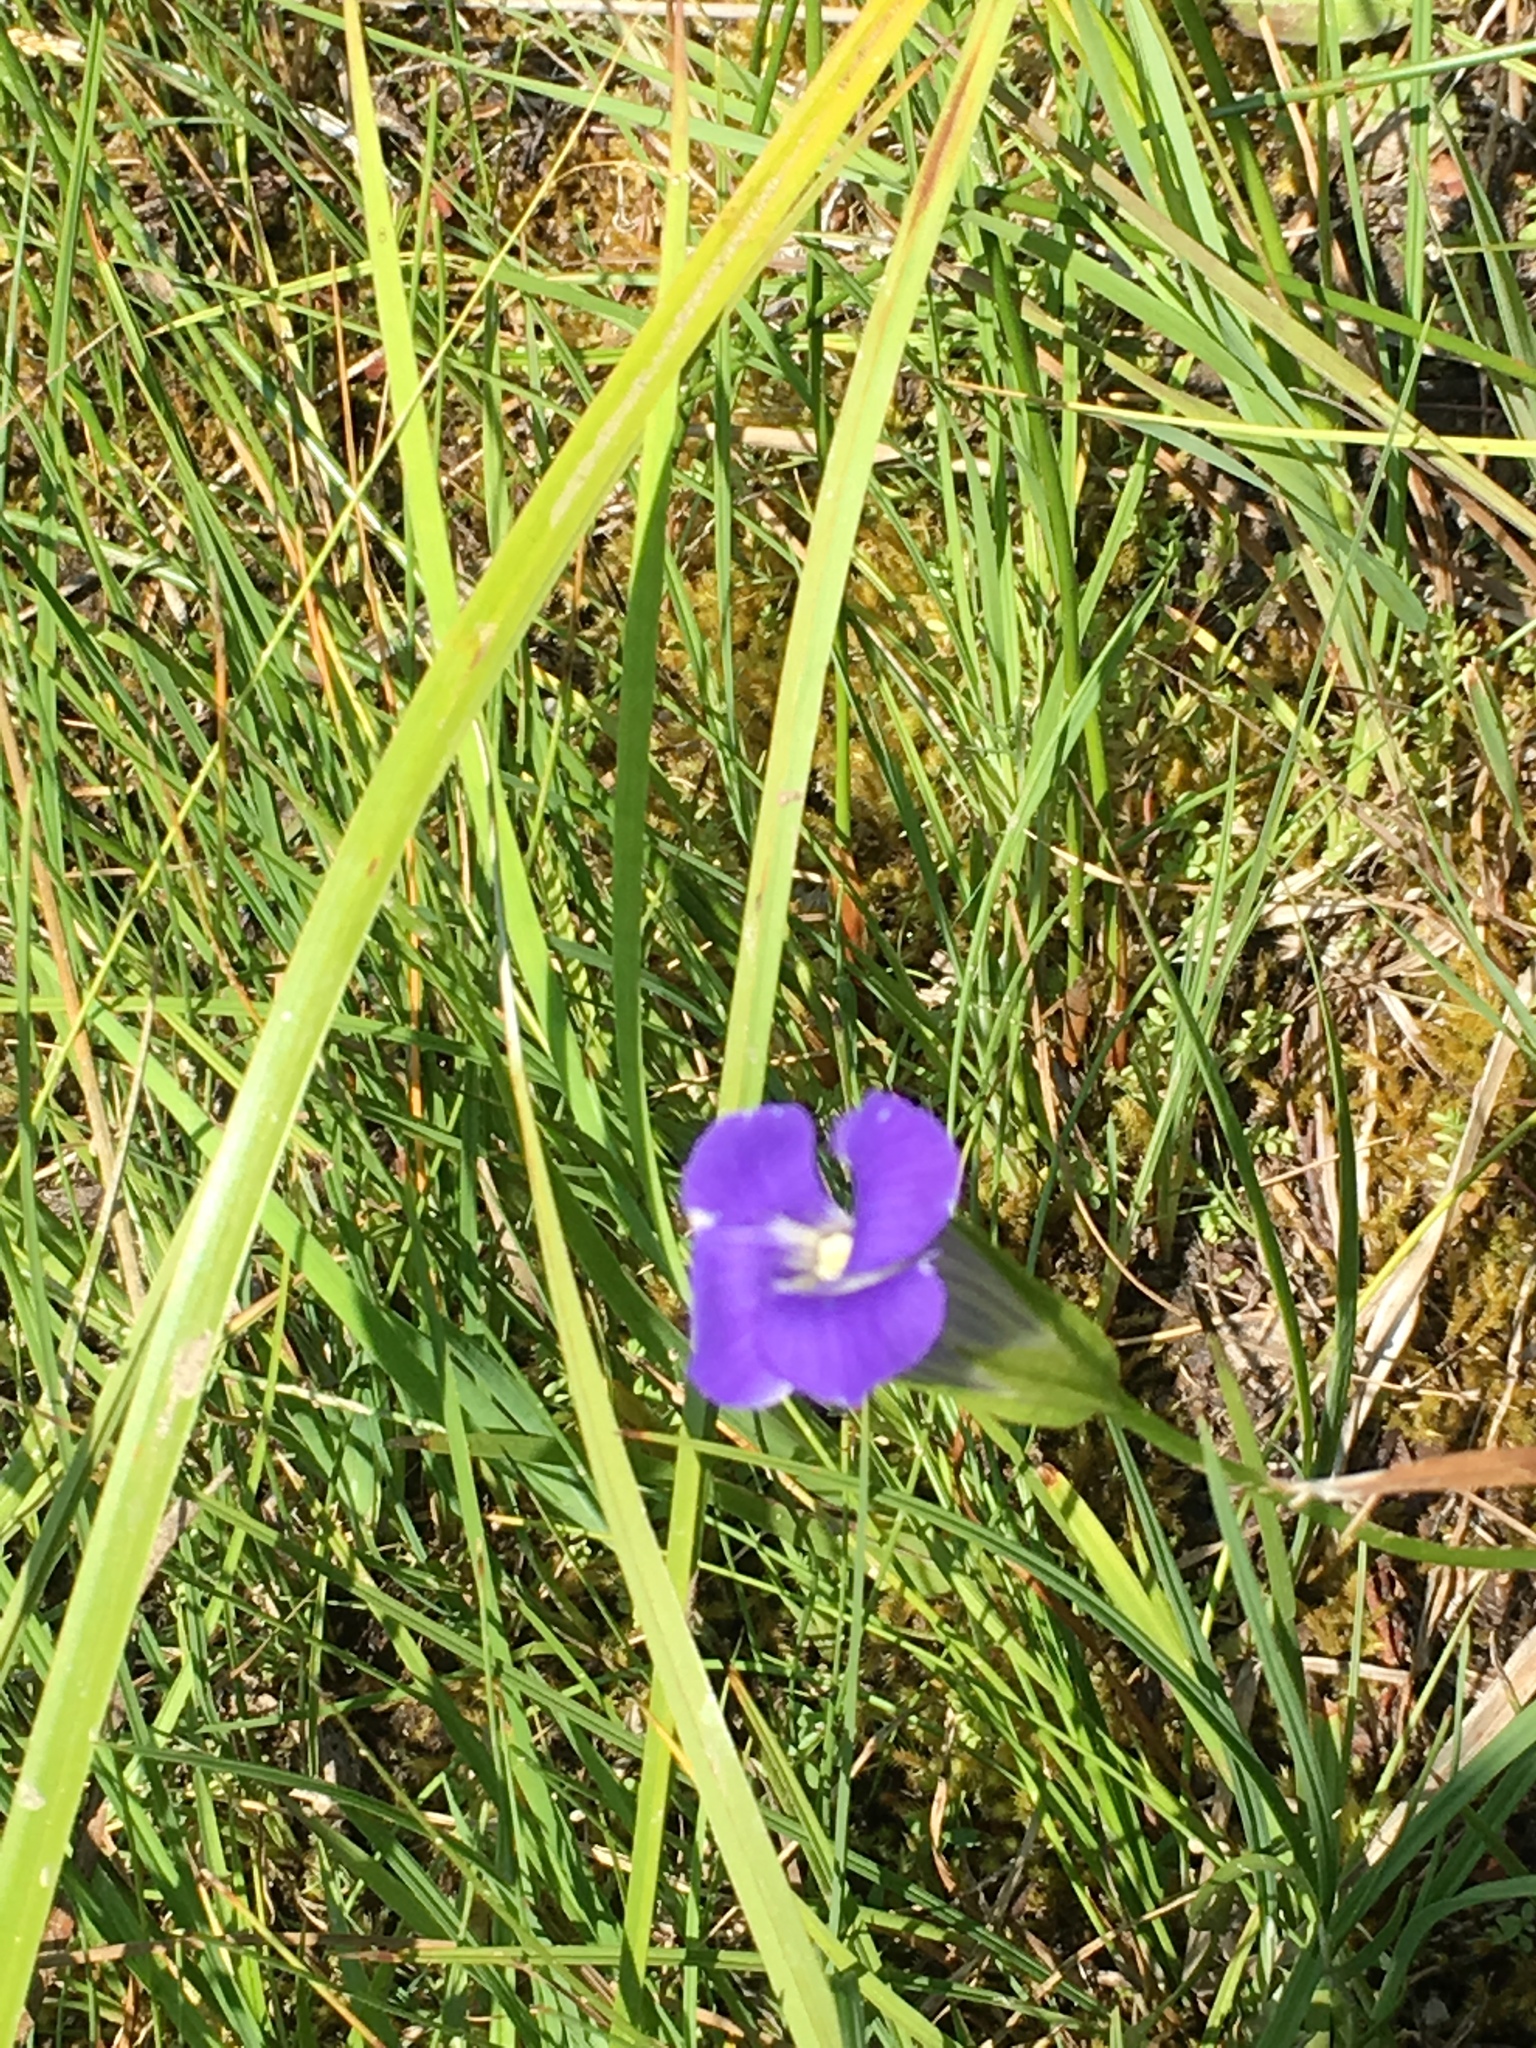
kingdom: Plantae
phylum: Tracheophyta
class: Magnoliopsida
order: Gentianales
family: Gentianaceae
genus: Gentianopsis
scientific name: Gentianopsis thermalis
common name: Rocky mountain fringed-gentian
